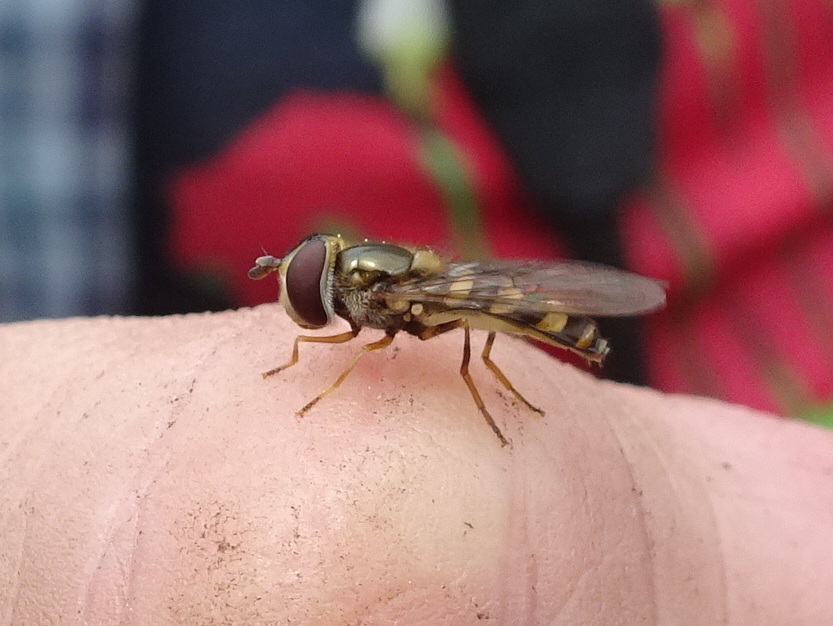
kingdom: Animalia
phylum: Arthropoda
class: Insecta
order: Diptera
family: Syrphidae
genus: Eupeodes
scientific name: Eupeodes
